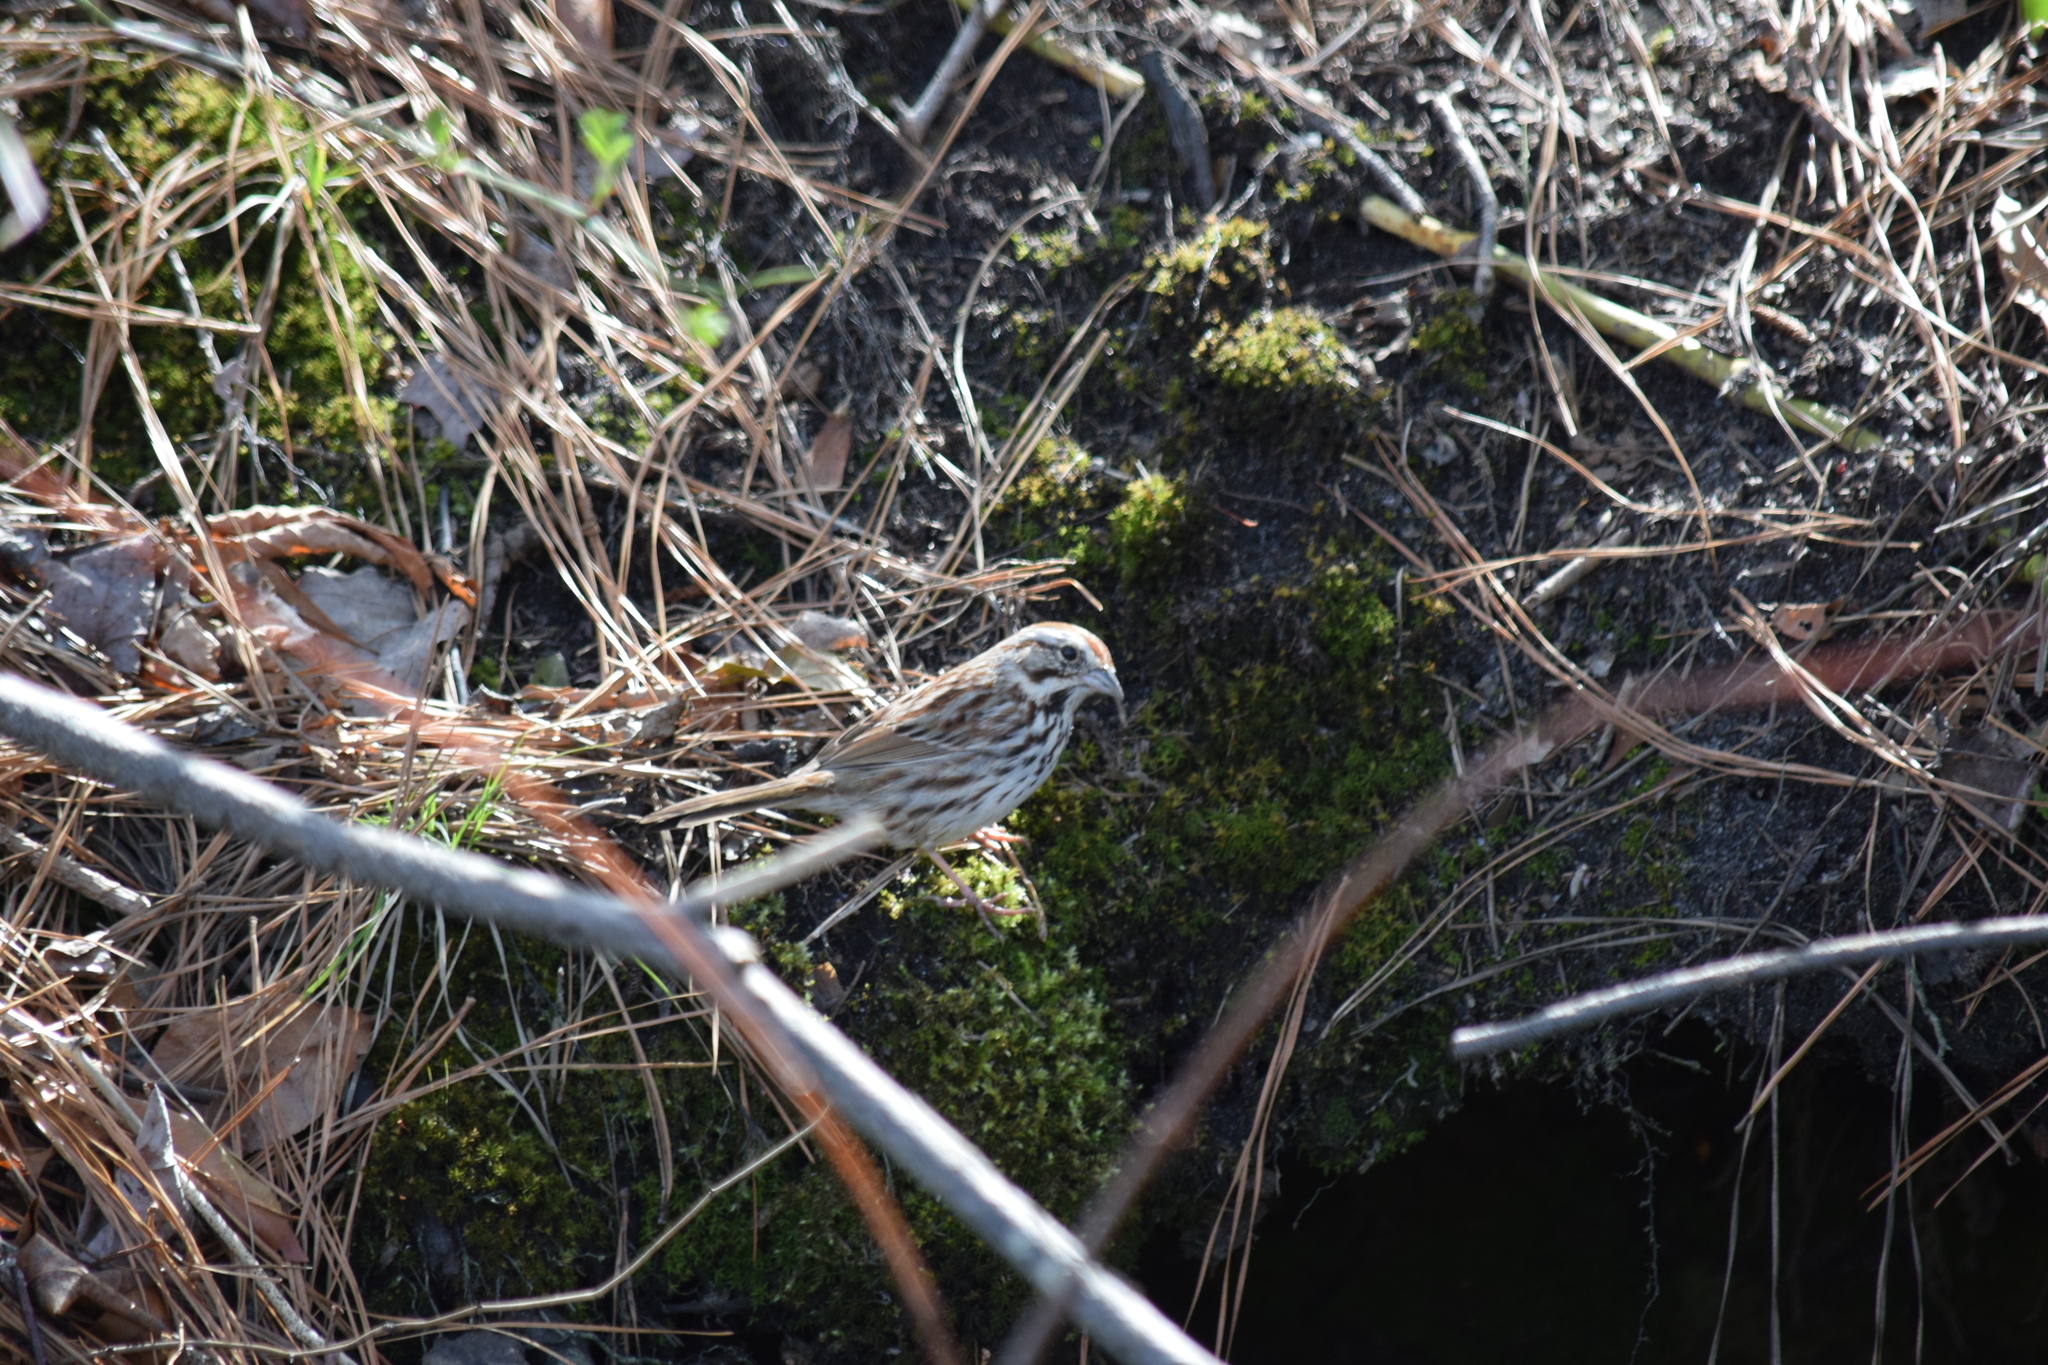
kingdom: Animalia
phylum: Chordata
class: Aves
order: Passeriformes
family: Passerellidae
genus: Melospiza
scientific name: Melospiza melodia
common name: Song sparrow
